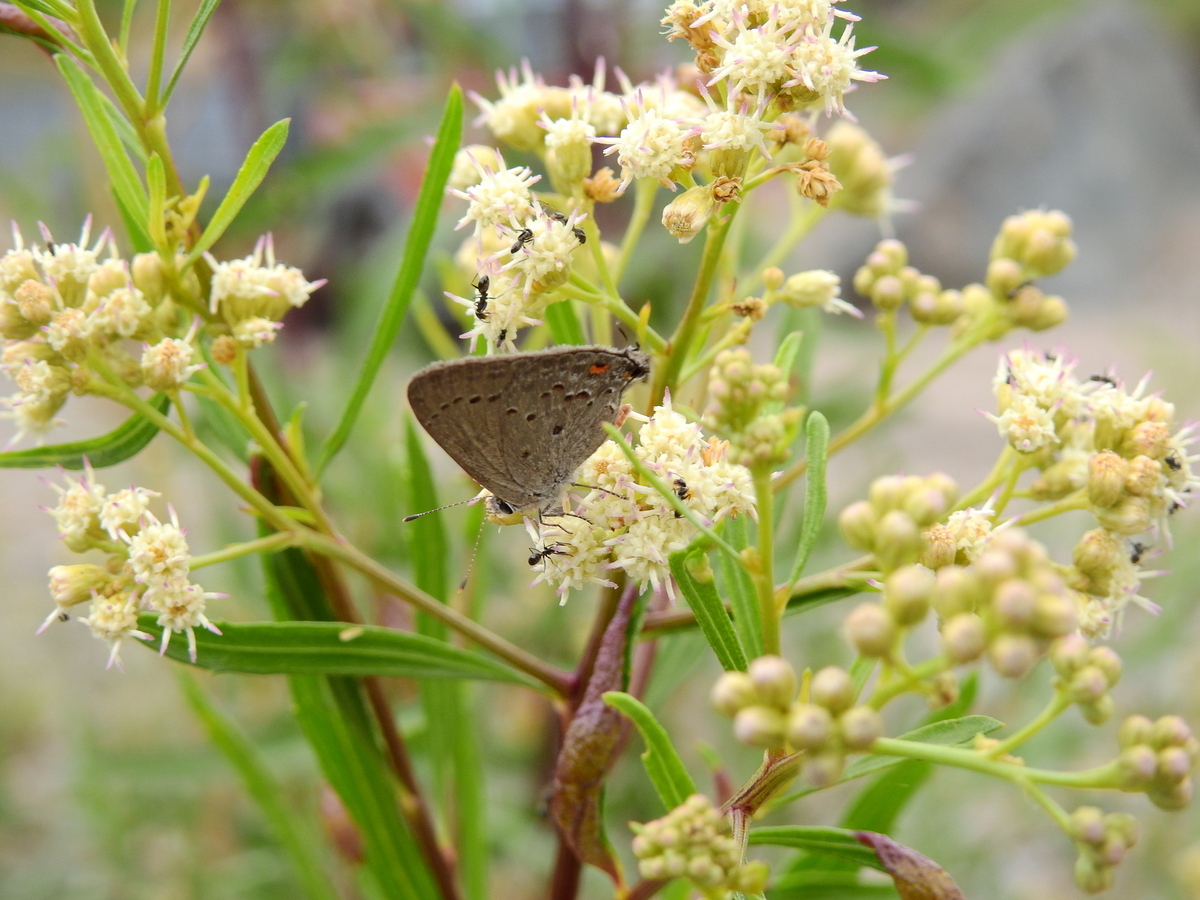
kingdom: Animalia
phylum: Arthropoda
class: Insecta
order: Lepidoptera
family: Lycaenidae
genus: Strymon
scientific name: Strymon eurytulus
